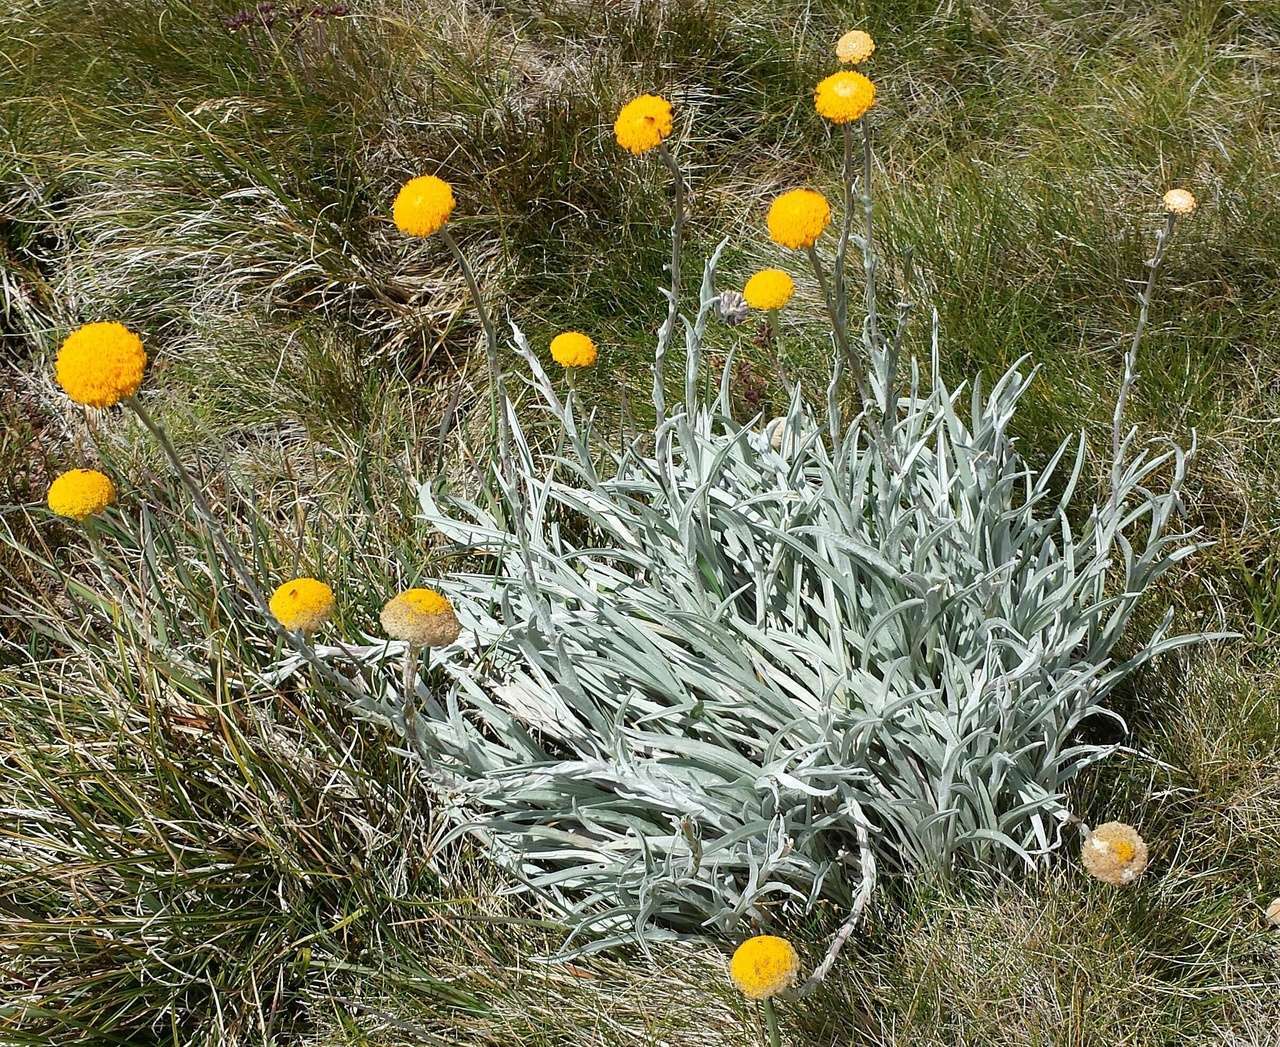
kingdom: Plantae
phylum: Tracheophyta
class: Magnoliopsida
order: Asterales
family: Asteraceae
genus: Craspedia
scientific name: Craspedia gracilis
